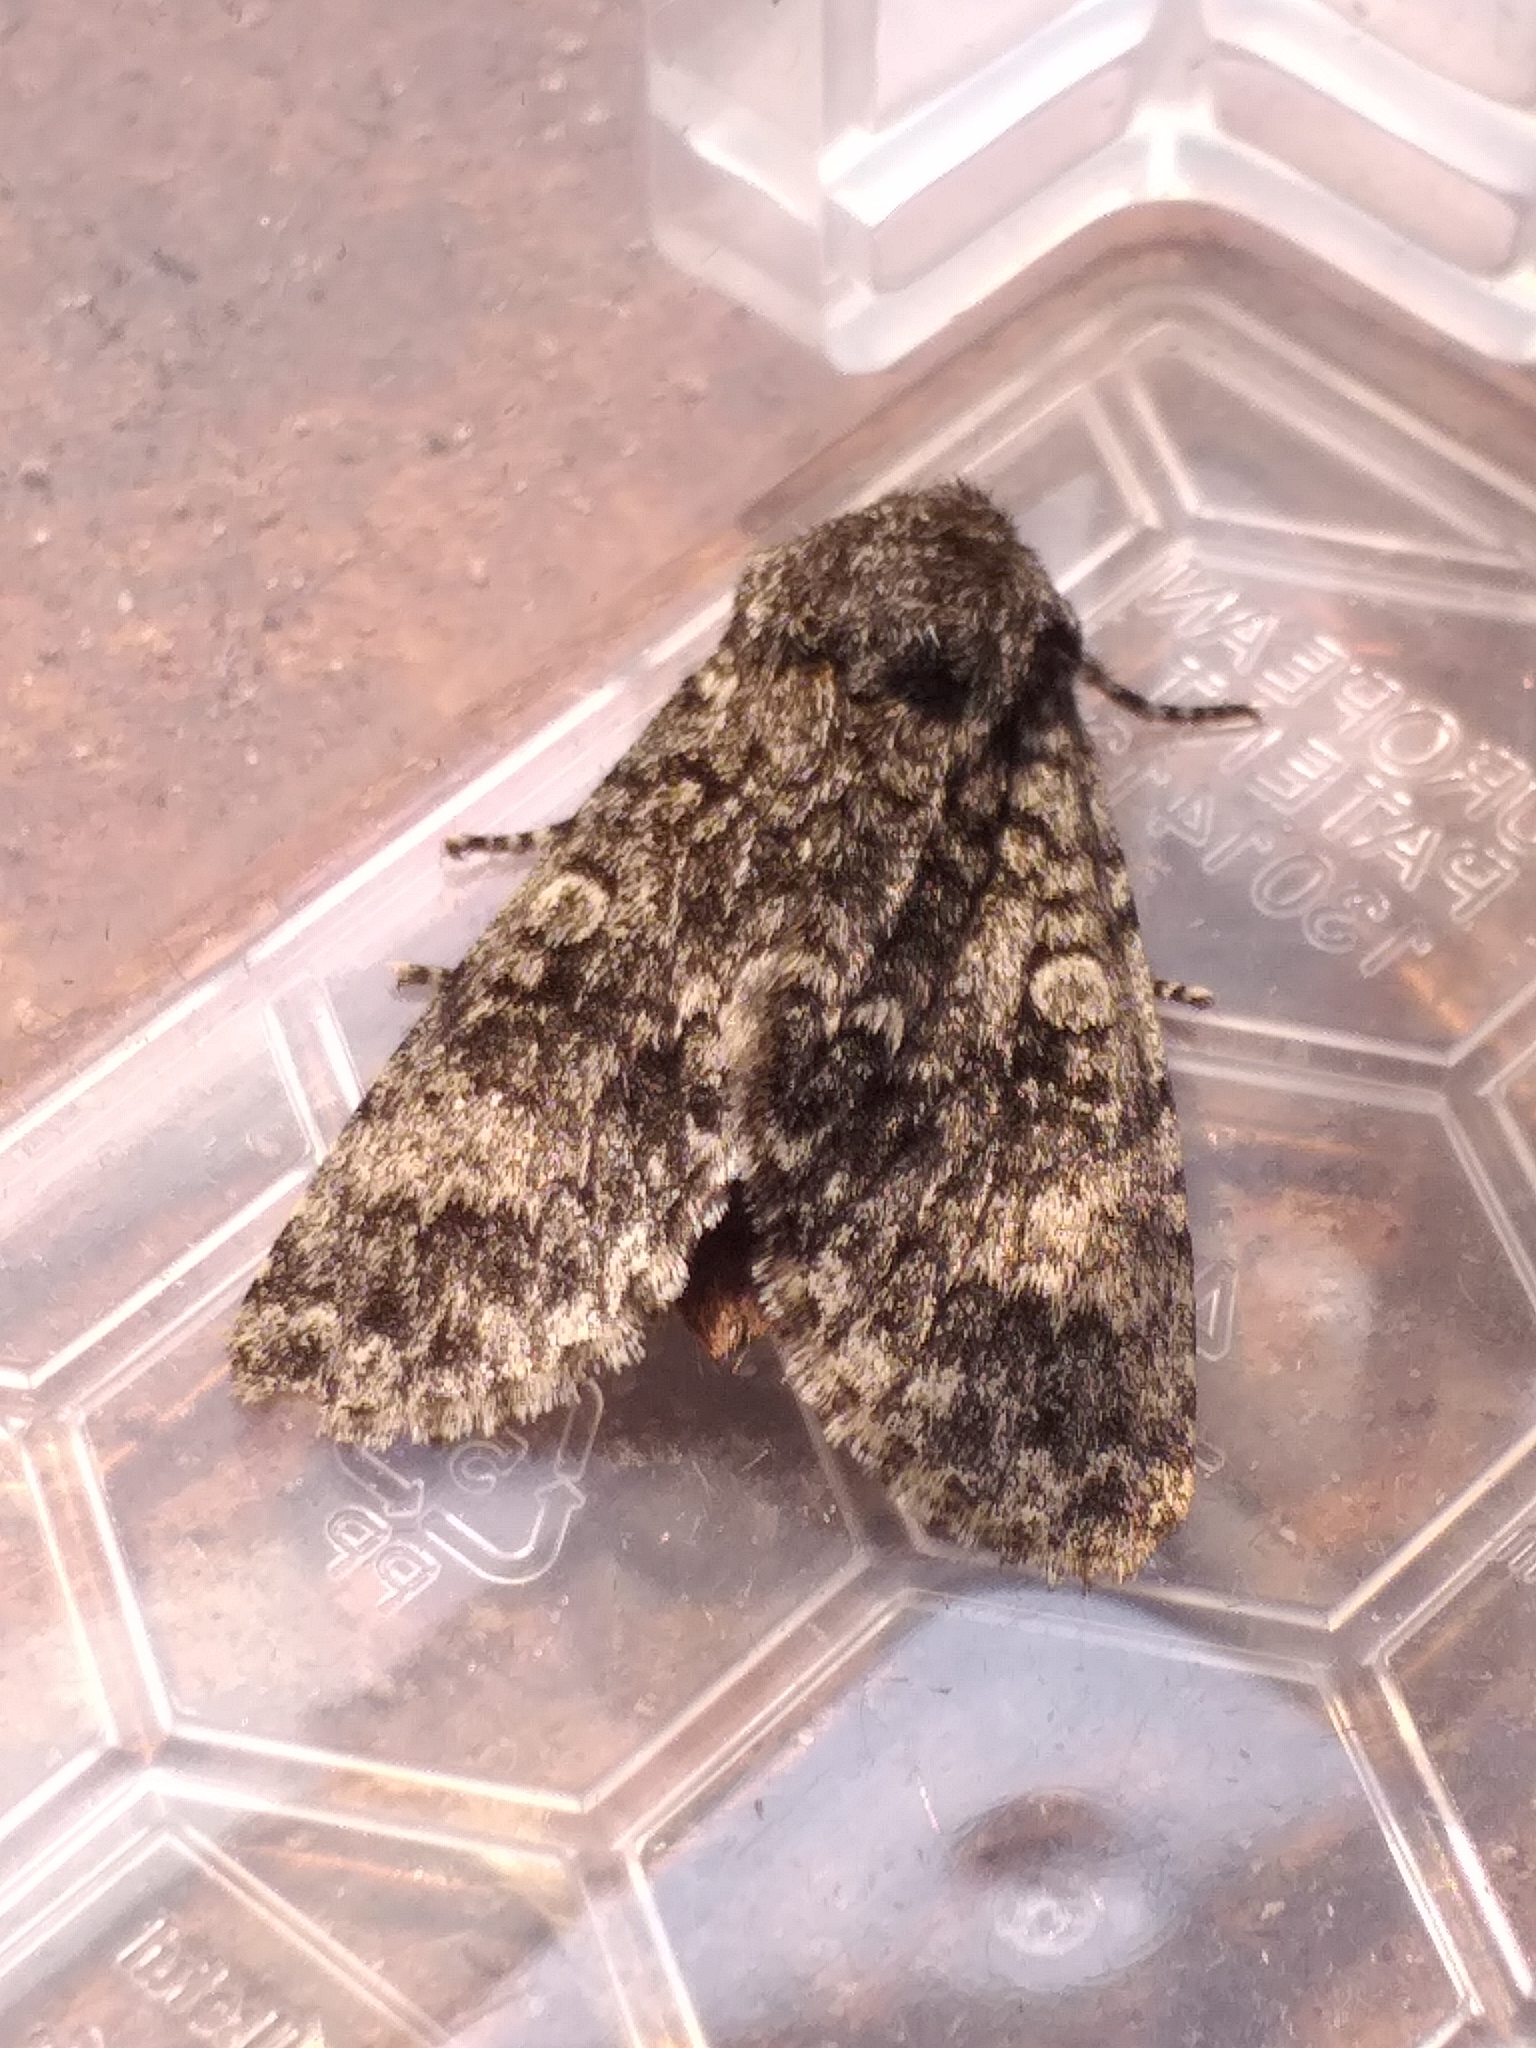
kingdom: Animalia
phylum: Arthropoda
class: Insecta
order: Lepidoptera
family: Noctuidae
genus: Acronicta
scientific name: Acronicta megacephala
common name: Poplar grey
